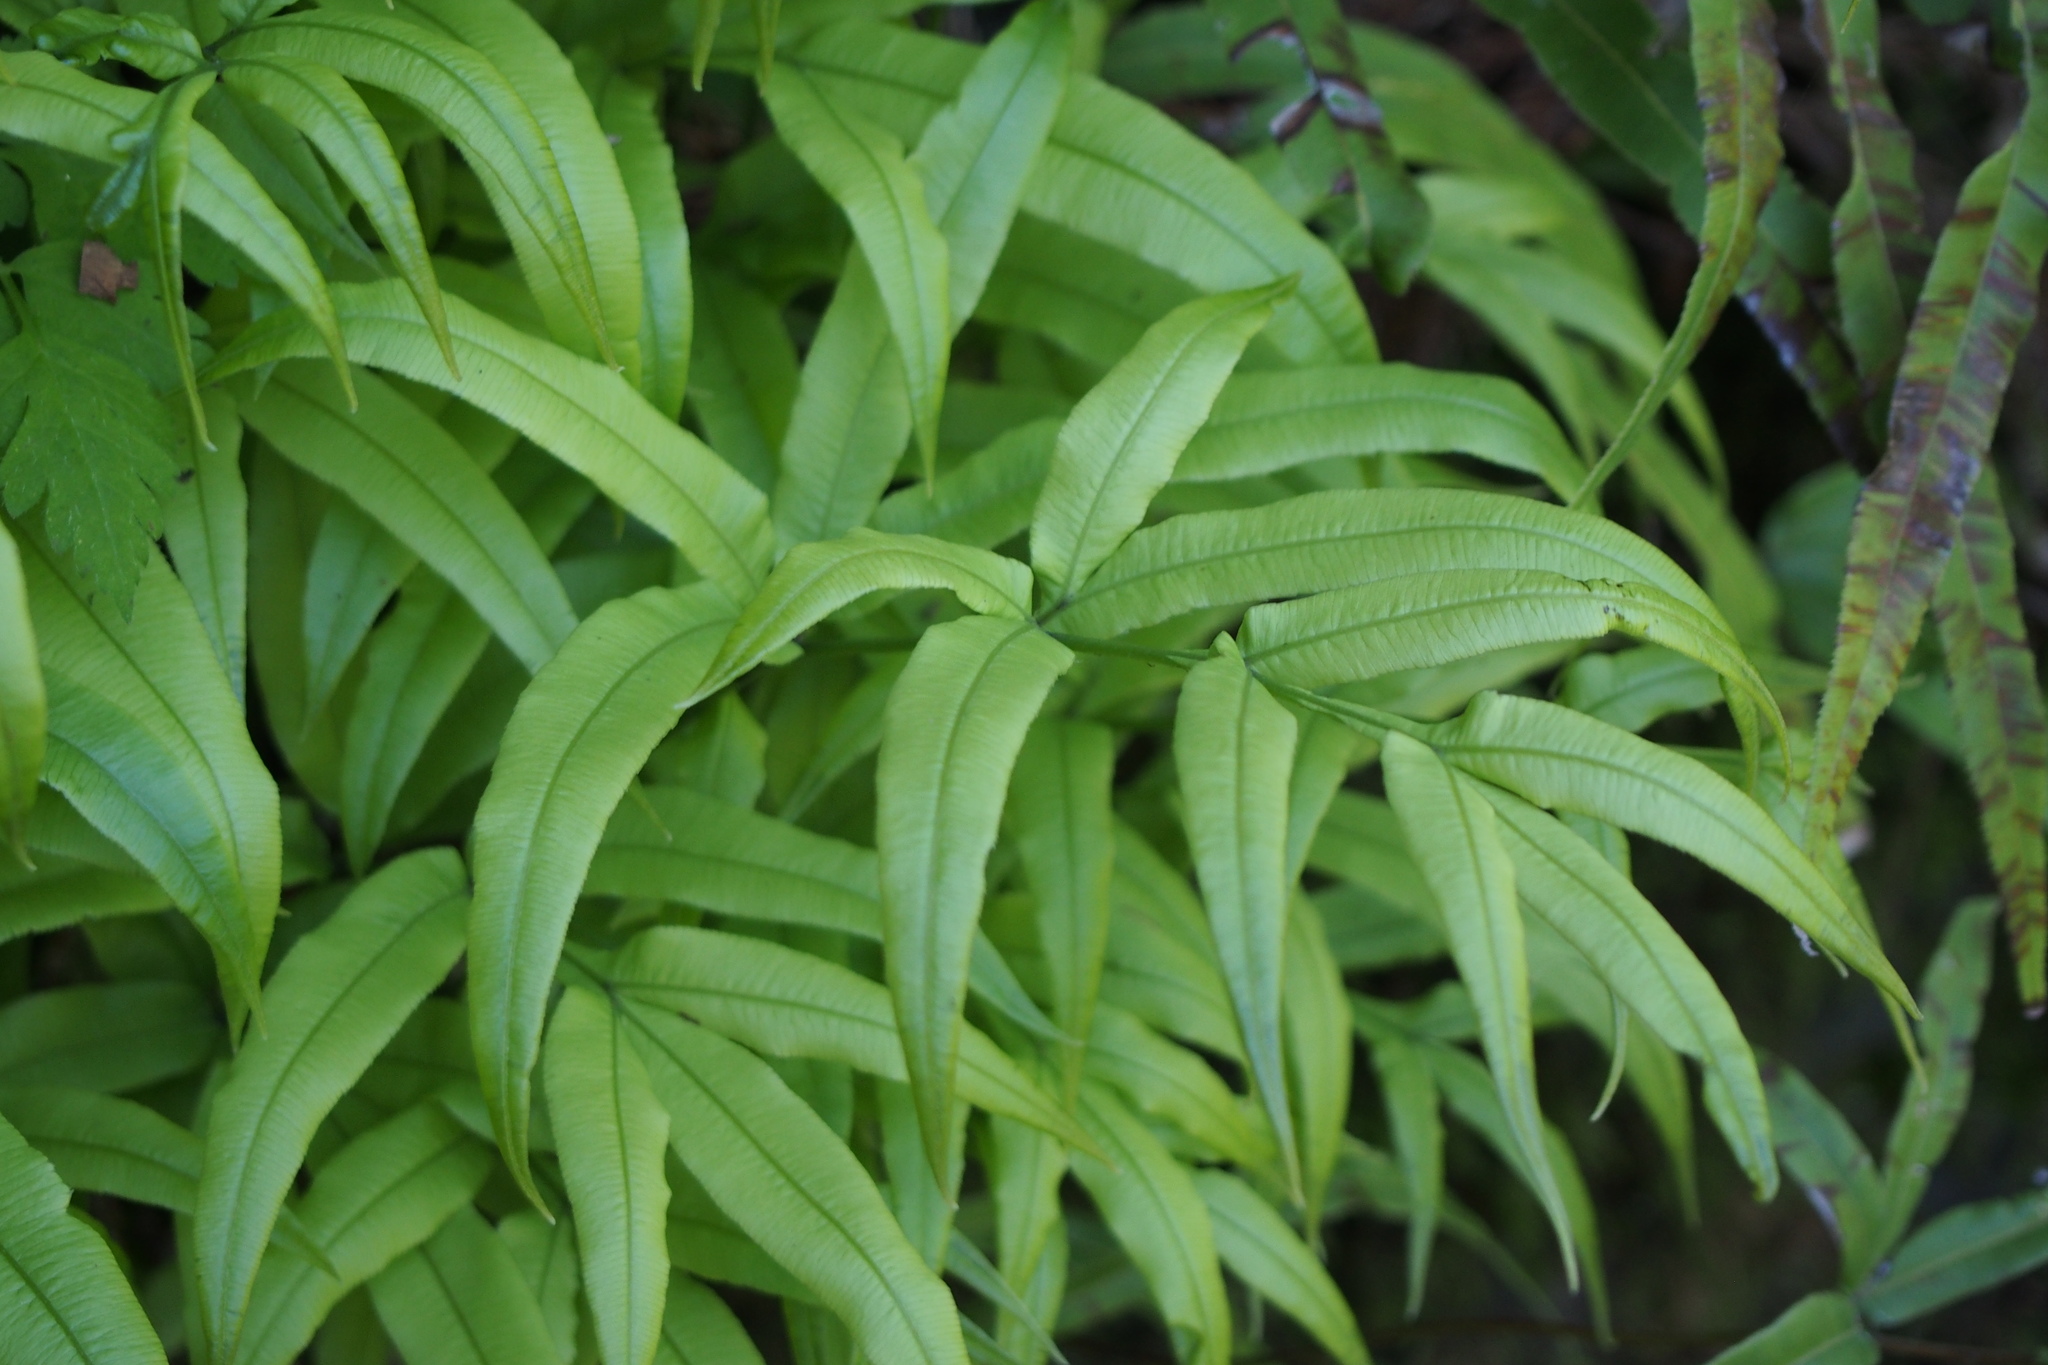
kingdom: Plantae
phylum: Tracheophyta
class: Polypodiopsida
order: Polypodiales
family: Pteridaceae
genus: Pteris
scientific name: Pteris cretica
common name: Ribbon fern
